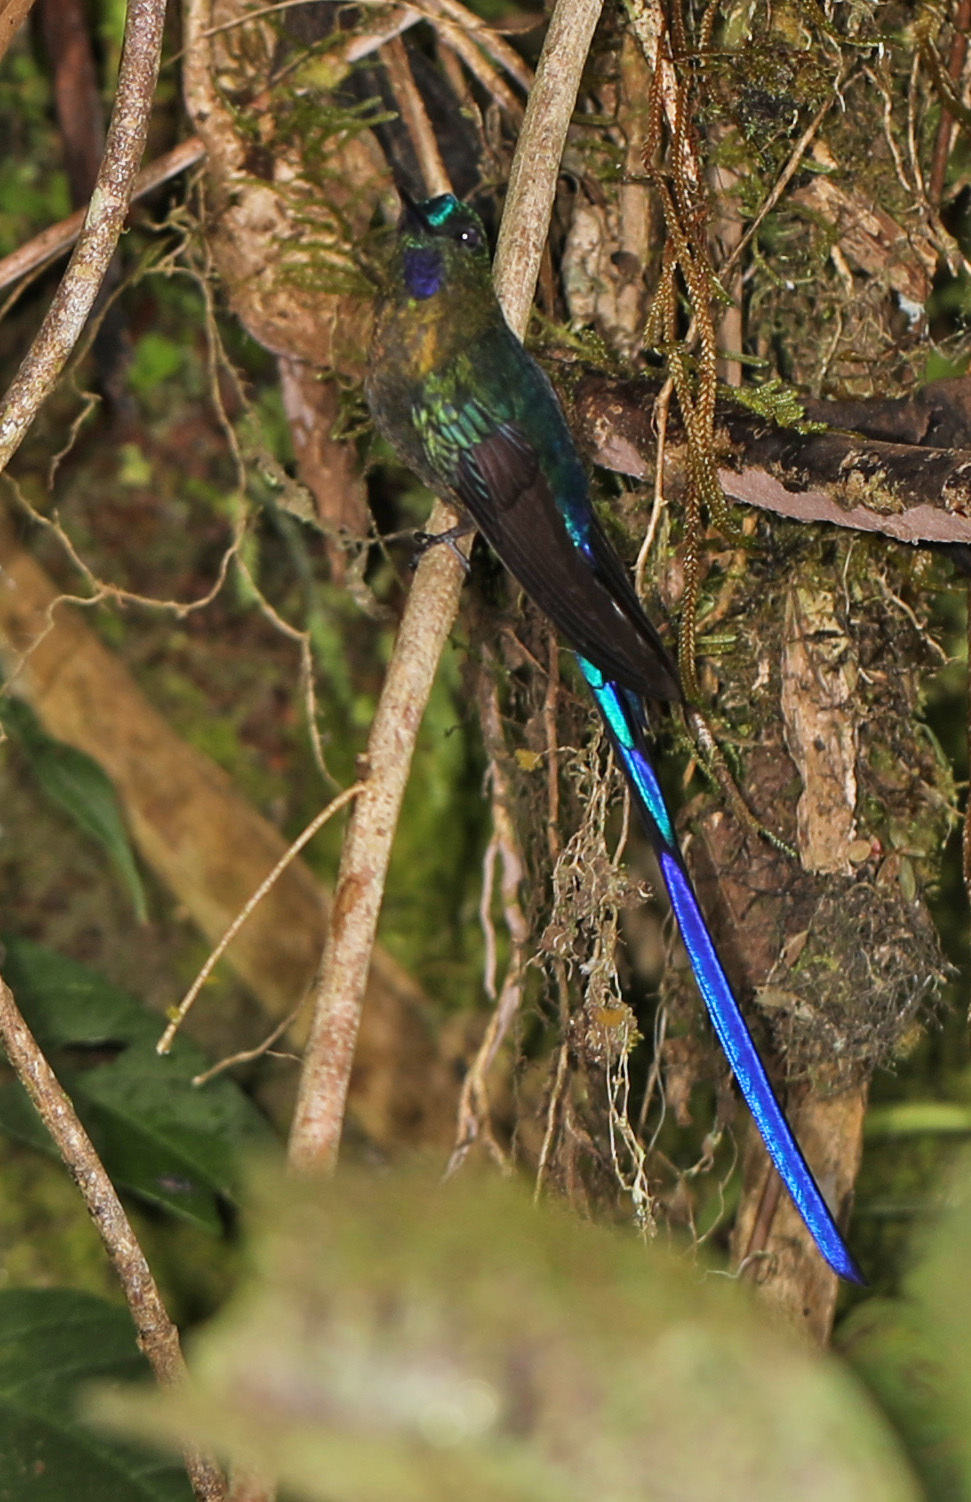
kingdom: Animalia
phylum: Chordata
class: Aves
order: Apodiformes
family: Trochilidae
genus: Aglaiocercus
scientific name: Aglaiocercus coelestis
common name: Violet-tailed sylph
